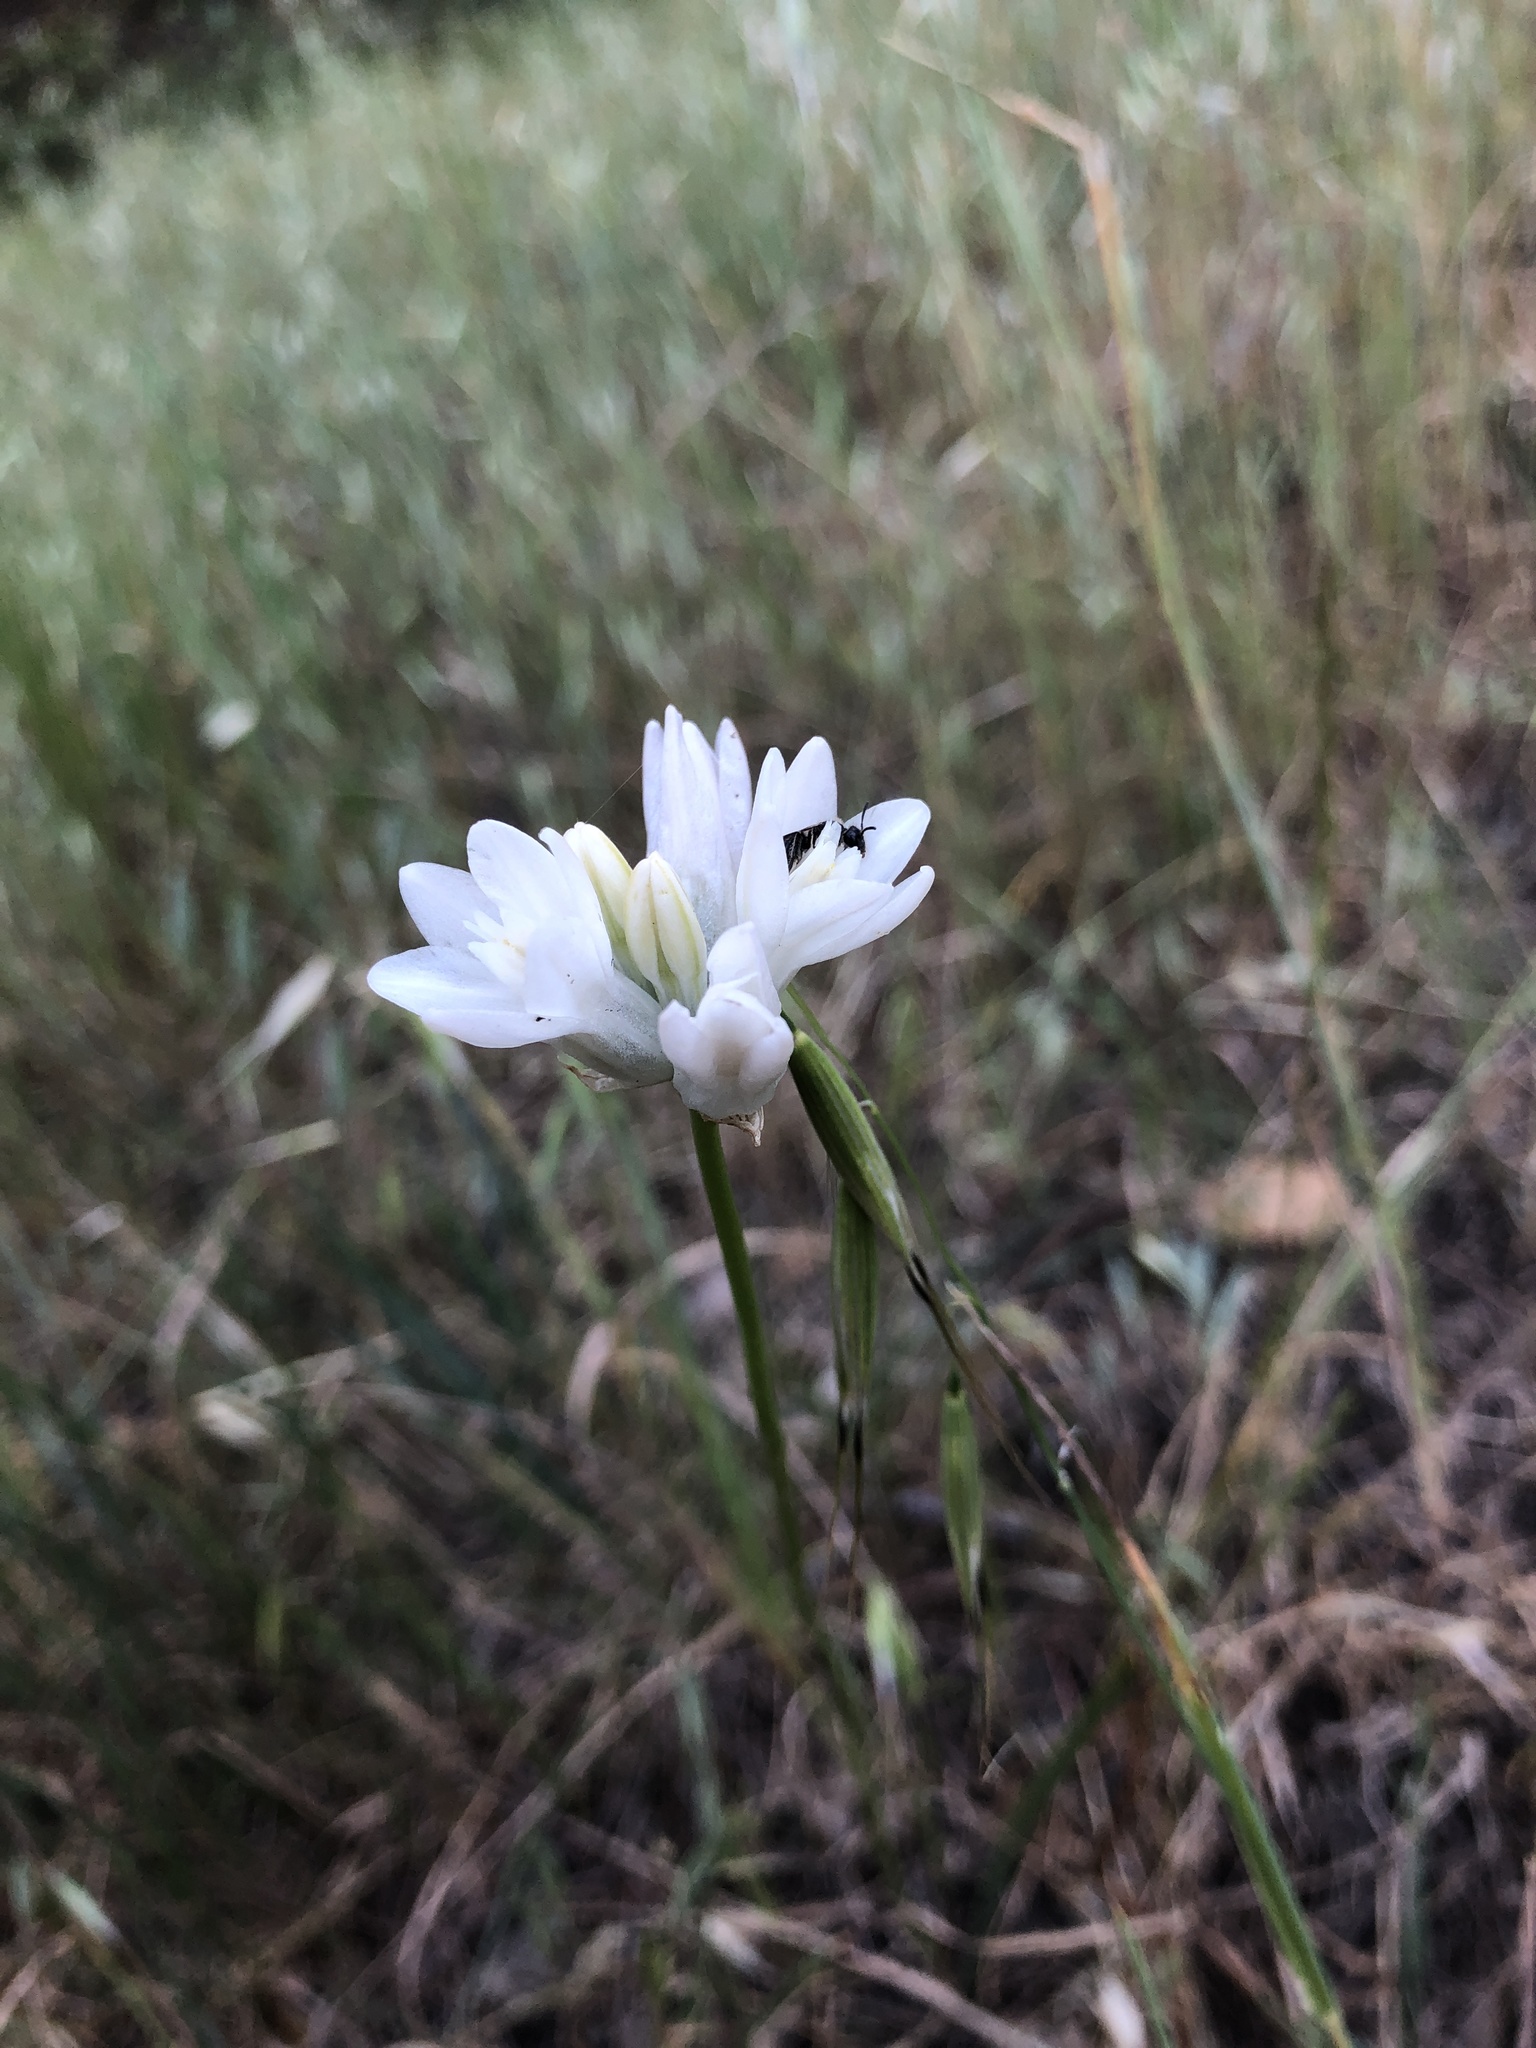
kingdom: Plantae
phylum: Tracheophyta
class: Liliopsida
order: Asparagales
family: Asparagaceae
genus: Dipterostemon
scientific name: Dipterostemon capitatus
